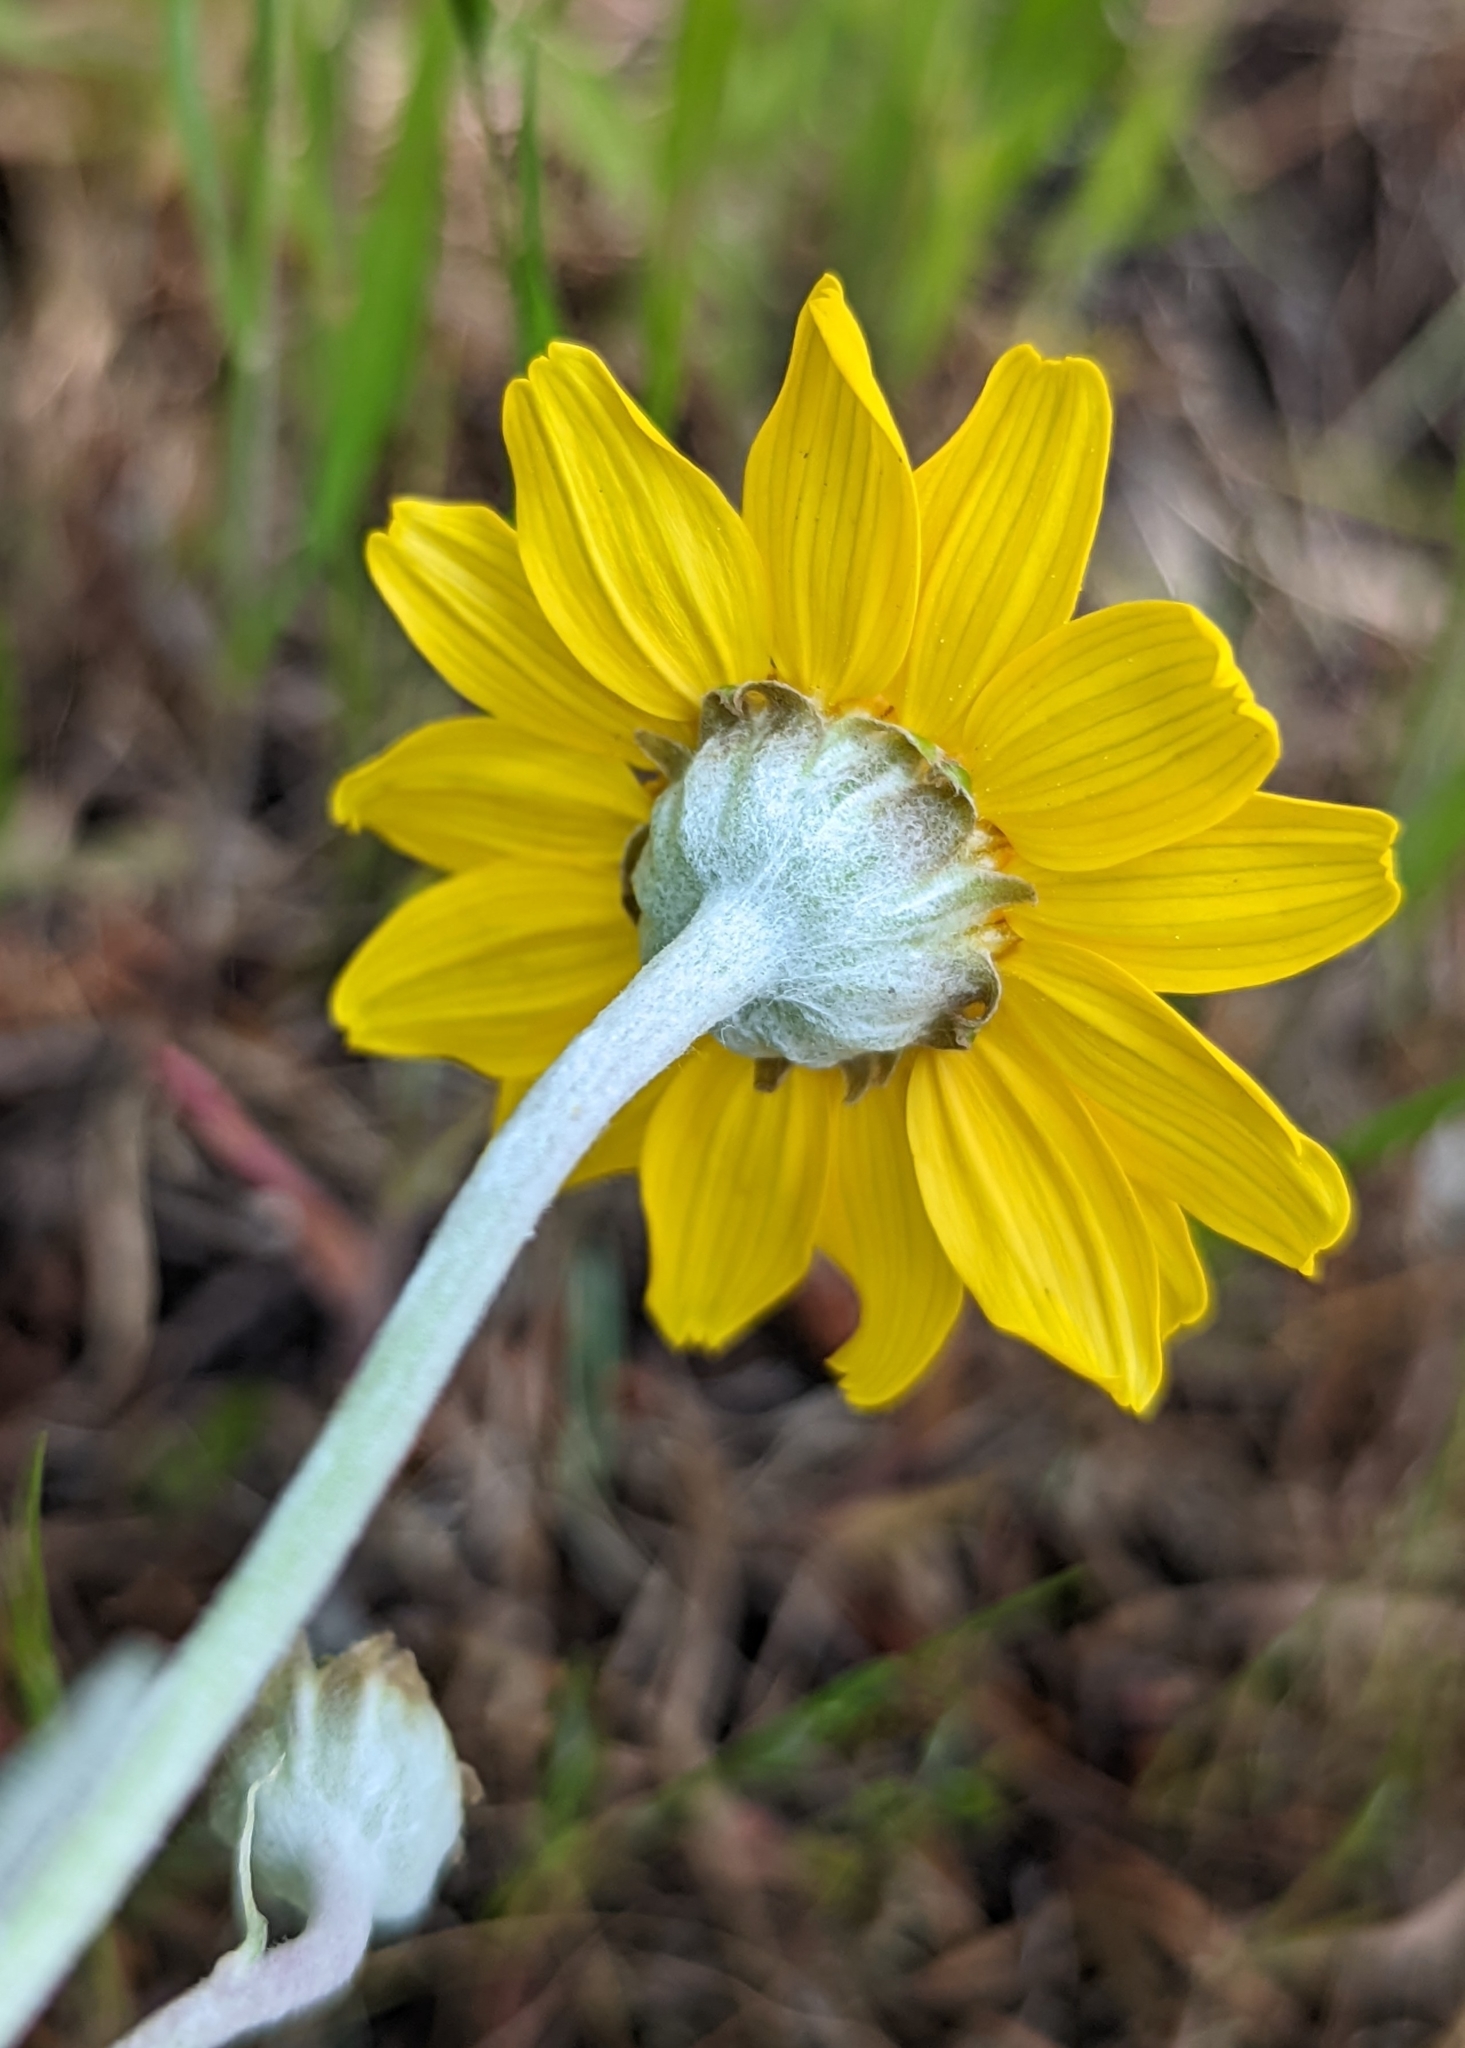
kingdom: Plantae
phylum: Tracheophyta
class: Magnoliopsida
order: Asterales
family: Asteraceae
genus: Eriophyllum
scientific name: Eriophyllum lanatum
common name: Common woolly-sunflower
